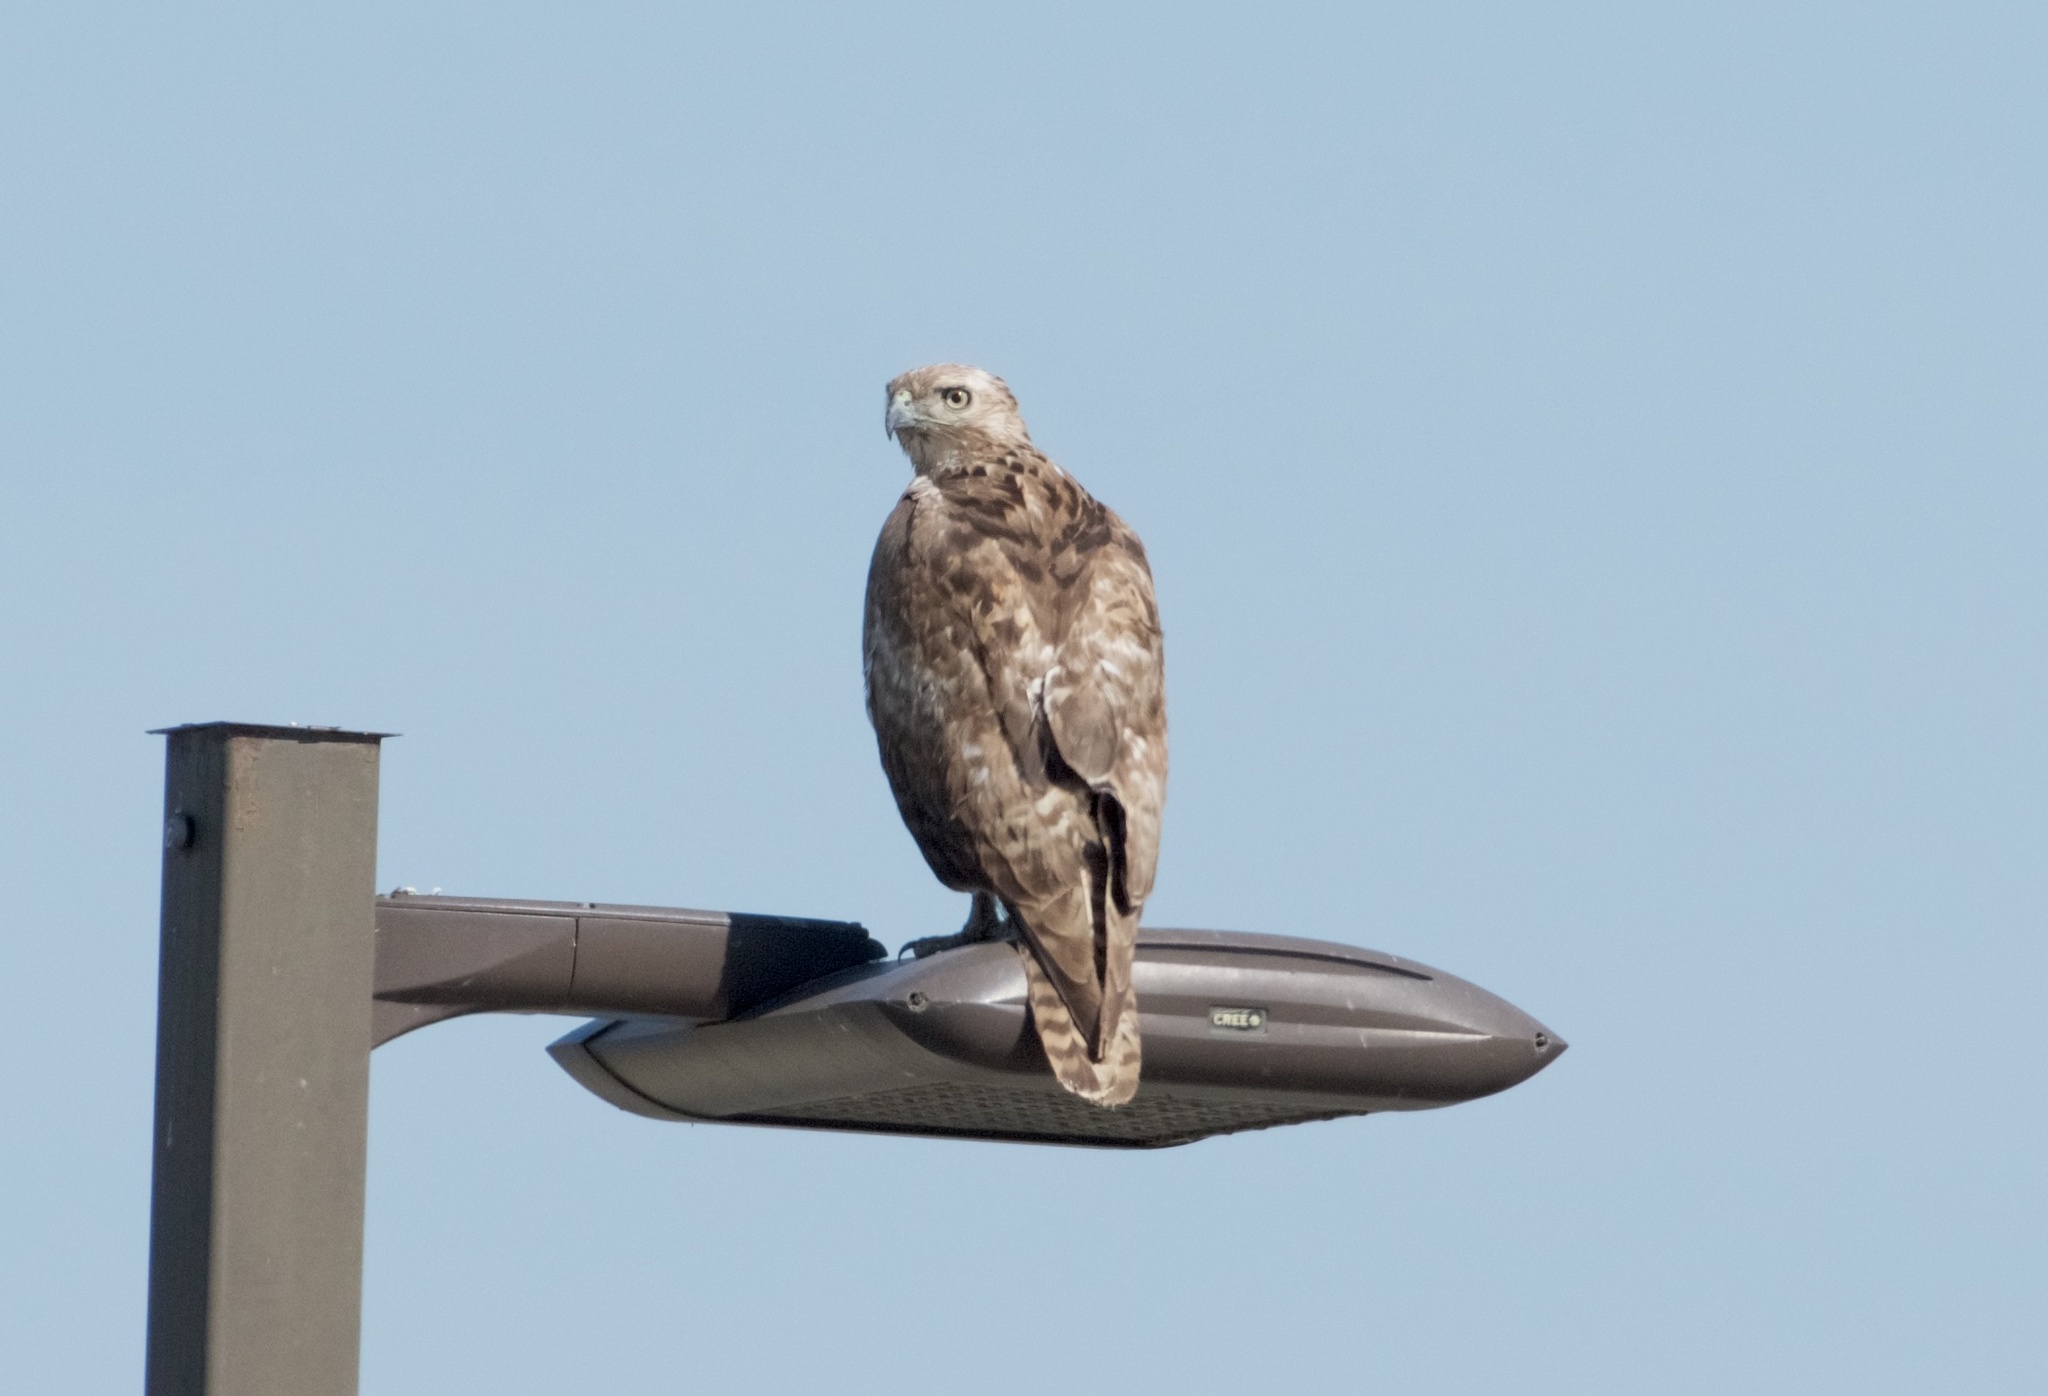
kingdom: Animalia
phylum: Chordata
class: Aves
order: Accipitriformes
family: Accipitridae
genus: Buteo
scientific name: Buteo jamaicensis
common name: Red-tailed hawk
